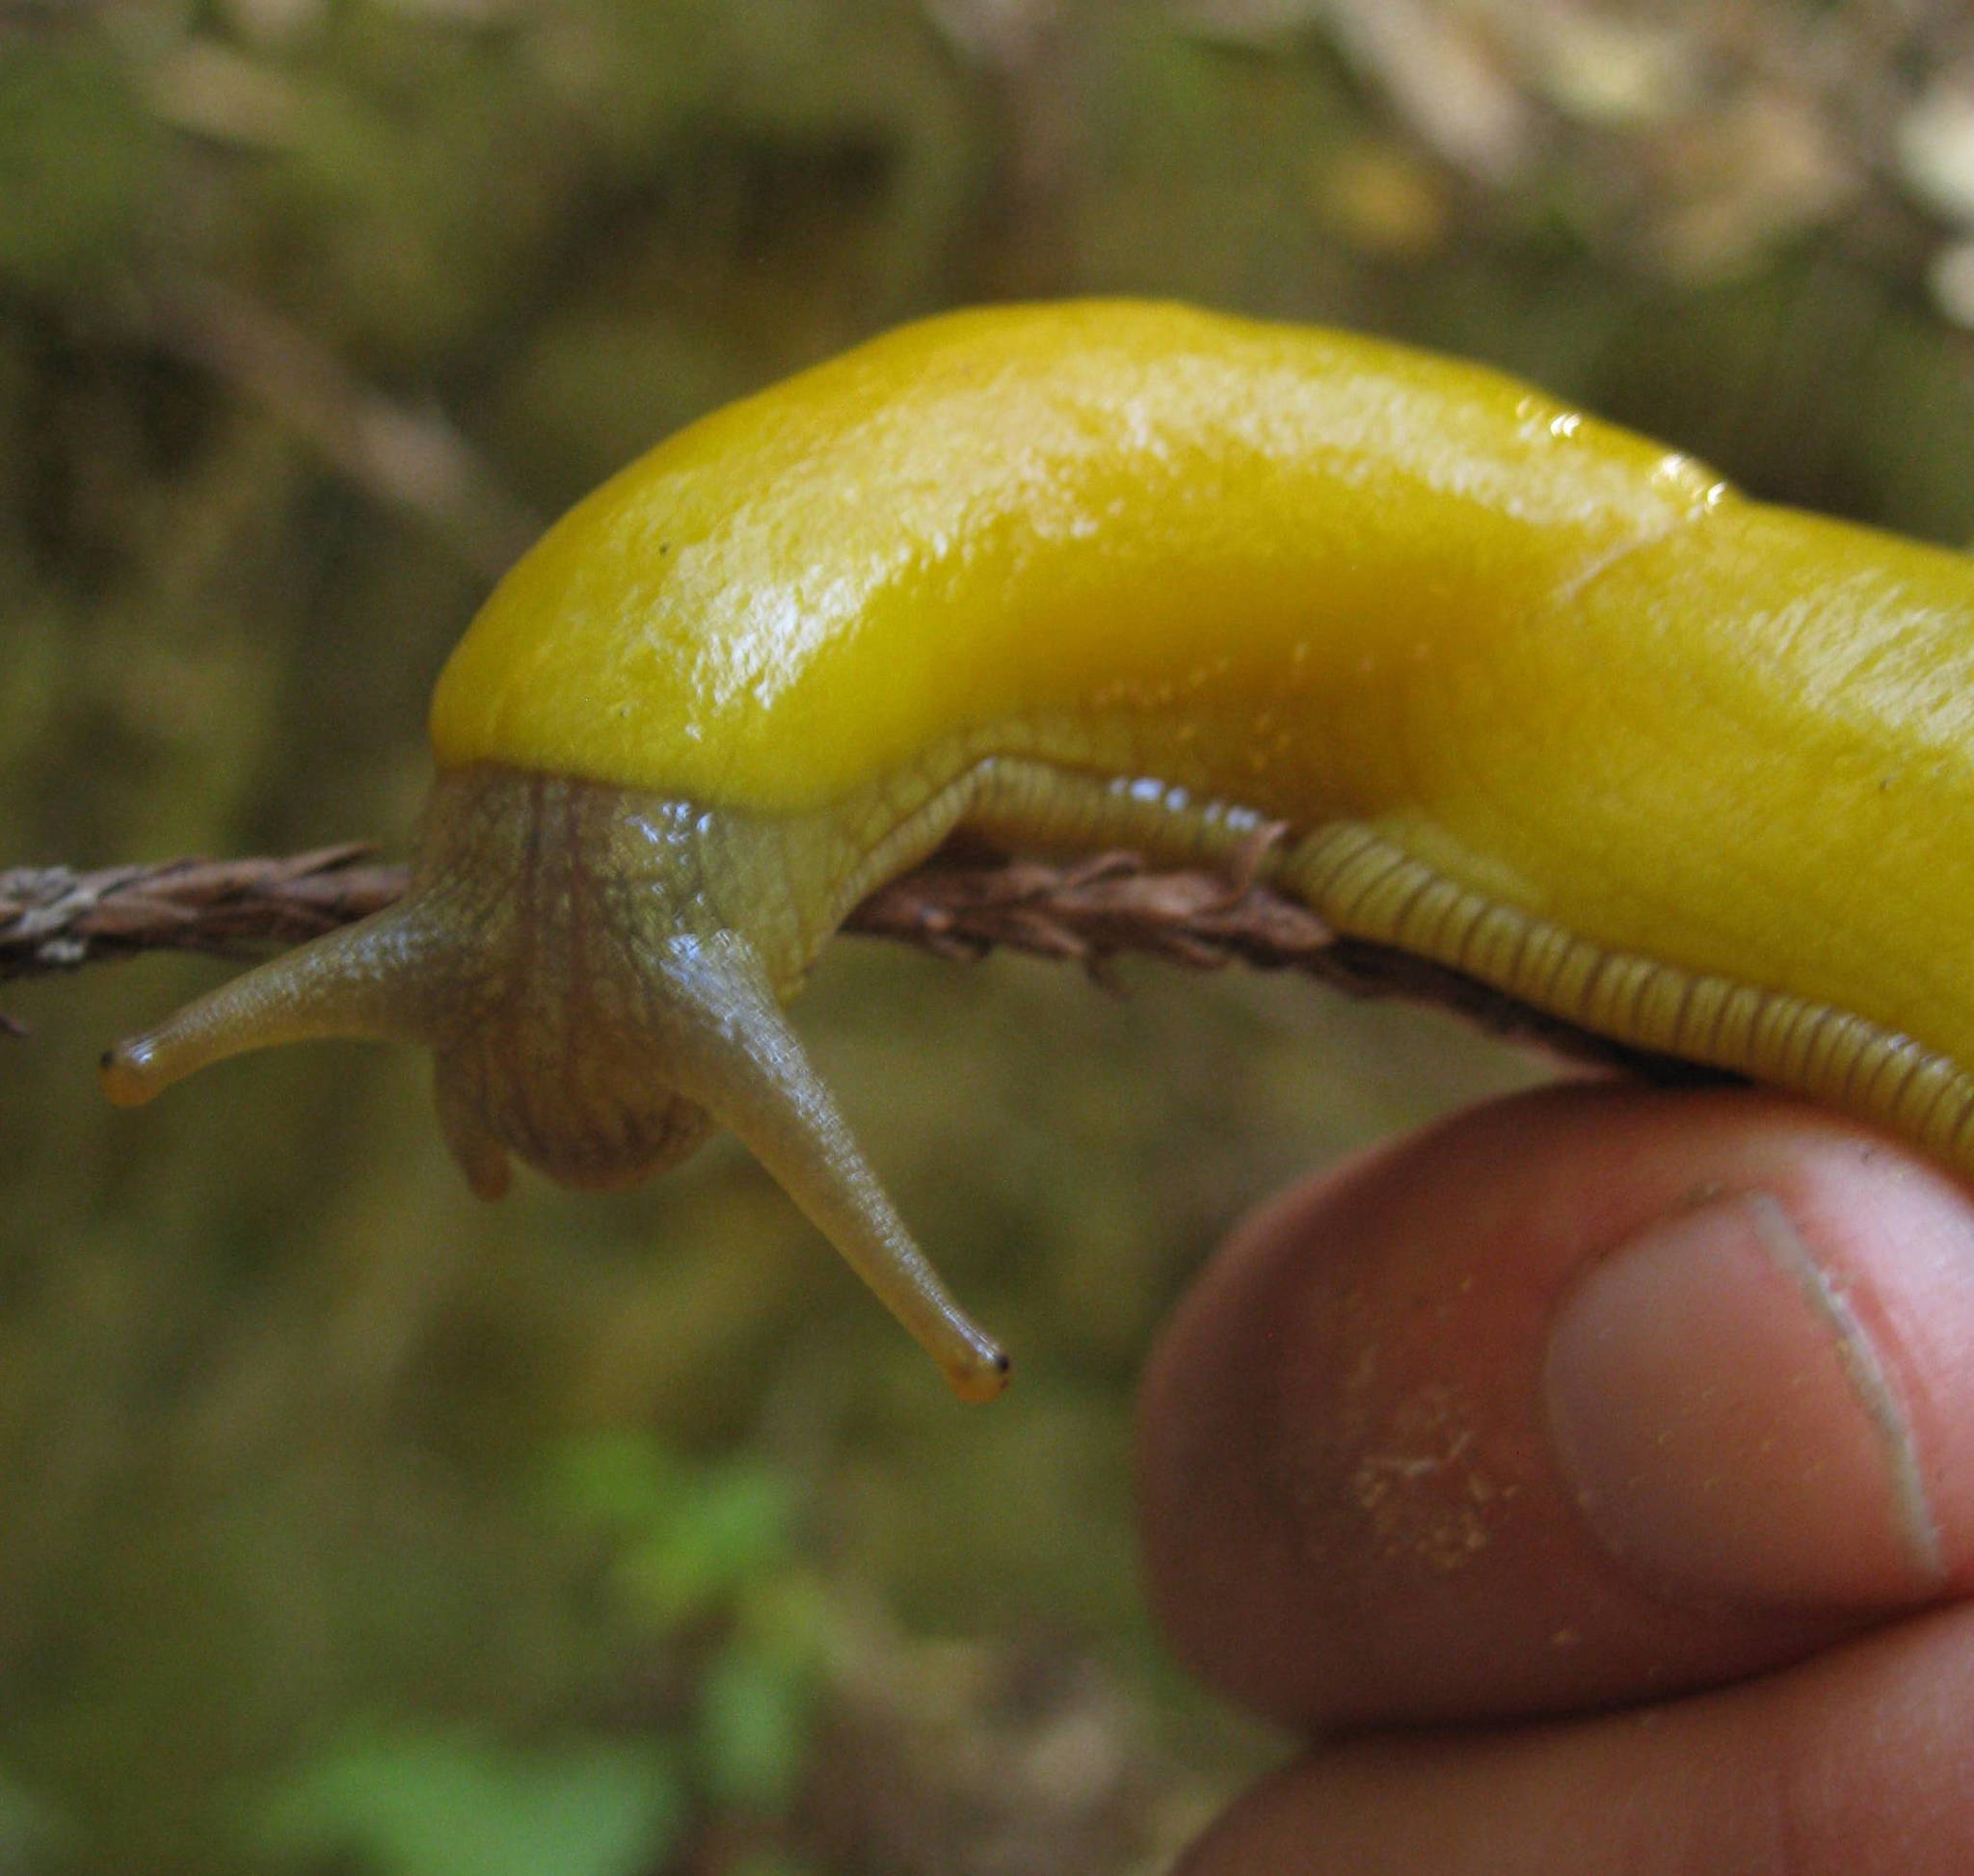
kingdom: Animalia
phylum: Mollusca
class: Gastropoda
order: Stylommatophora
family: Ariolimacidae
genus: Ariolimax
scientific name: Ariolimax californicus
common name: California banana slug
